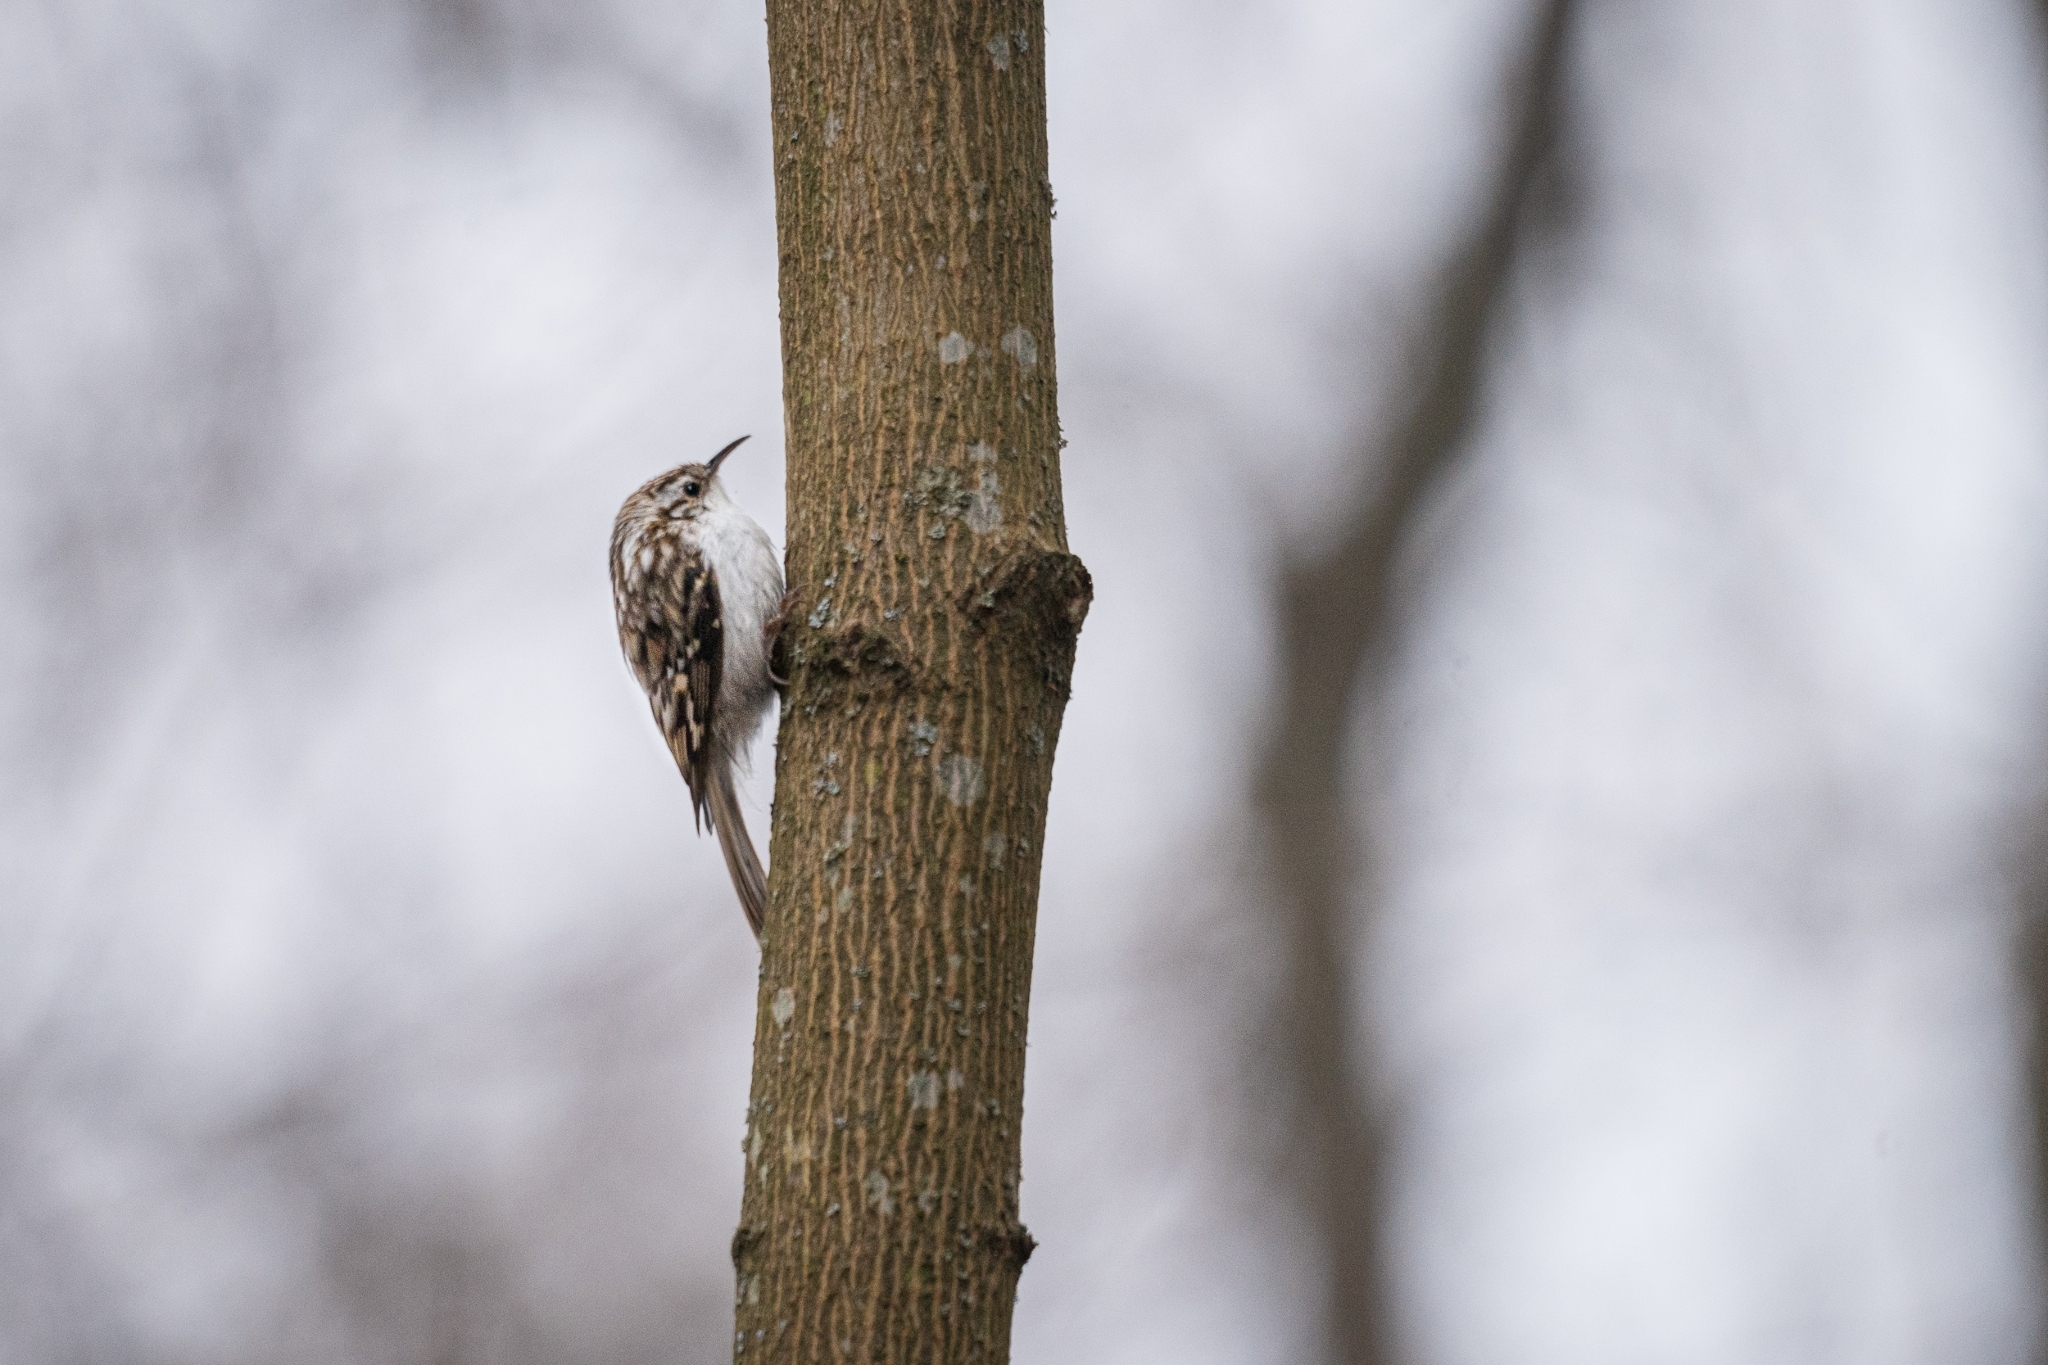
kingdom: Animalia
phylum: Chordata
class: Aves
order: Passeriformes
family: Certhiidae
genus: Certhia
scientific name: Certhia familiaris
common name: Eurasian treecreeper
